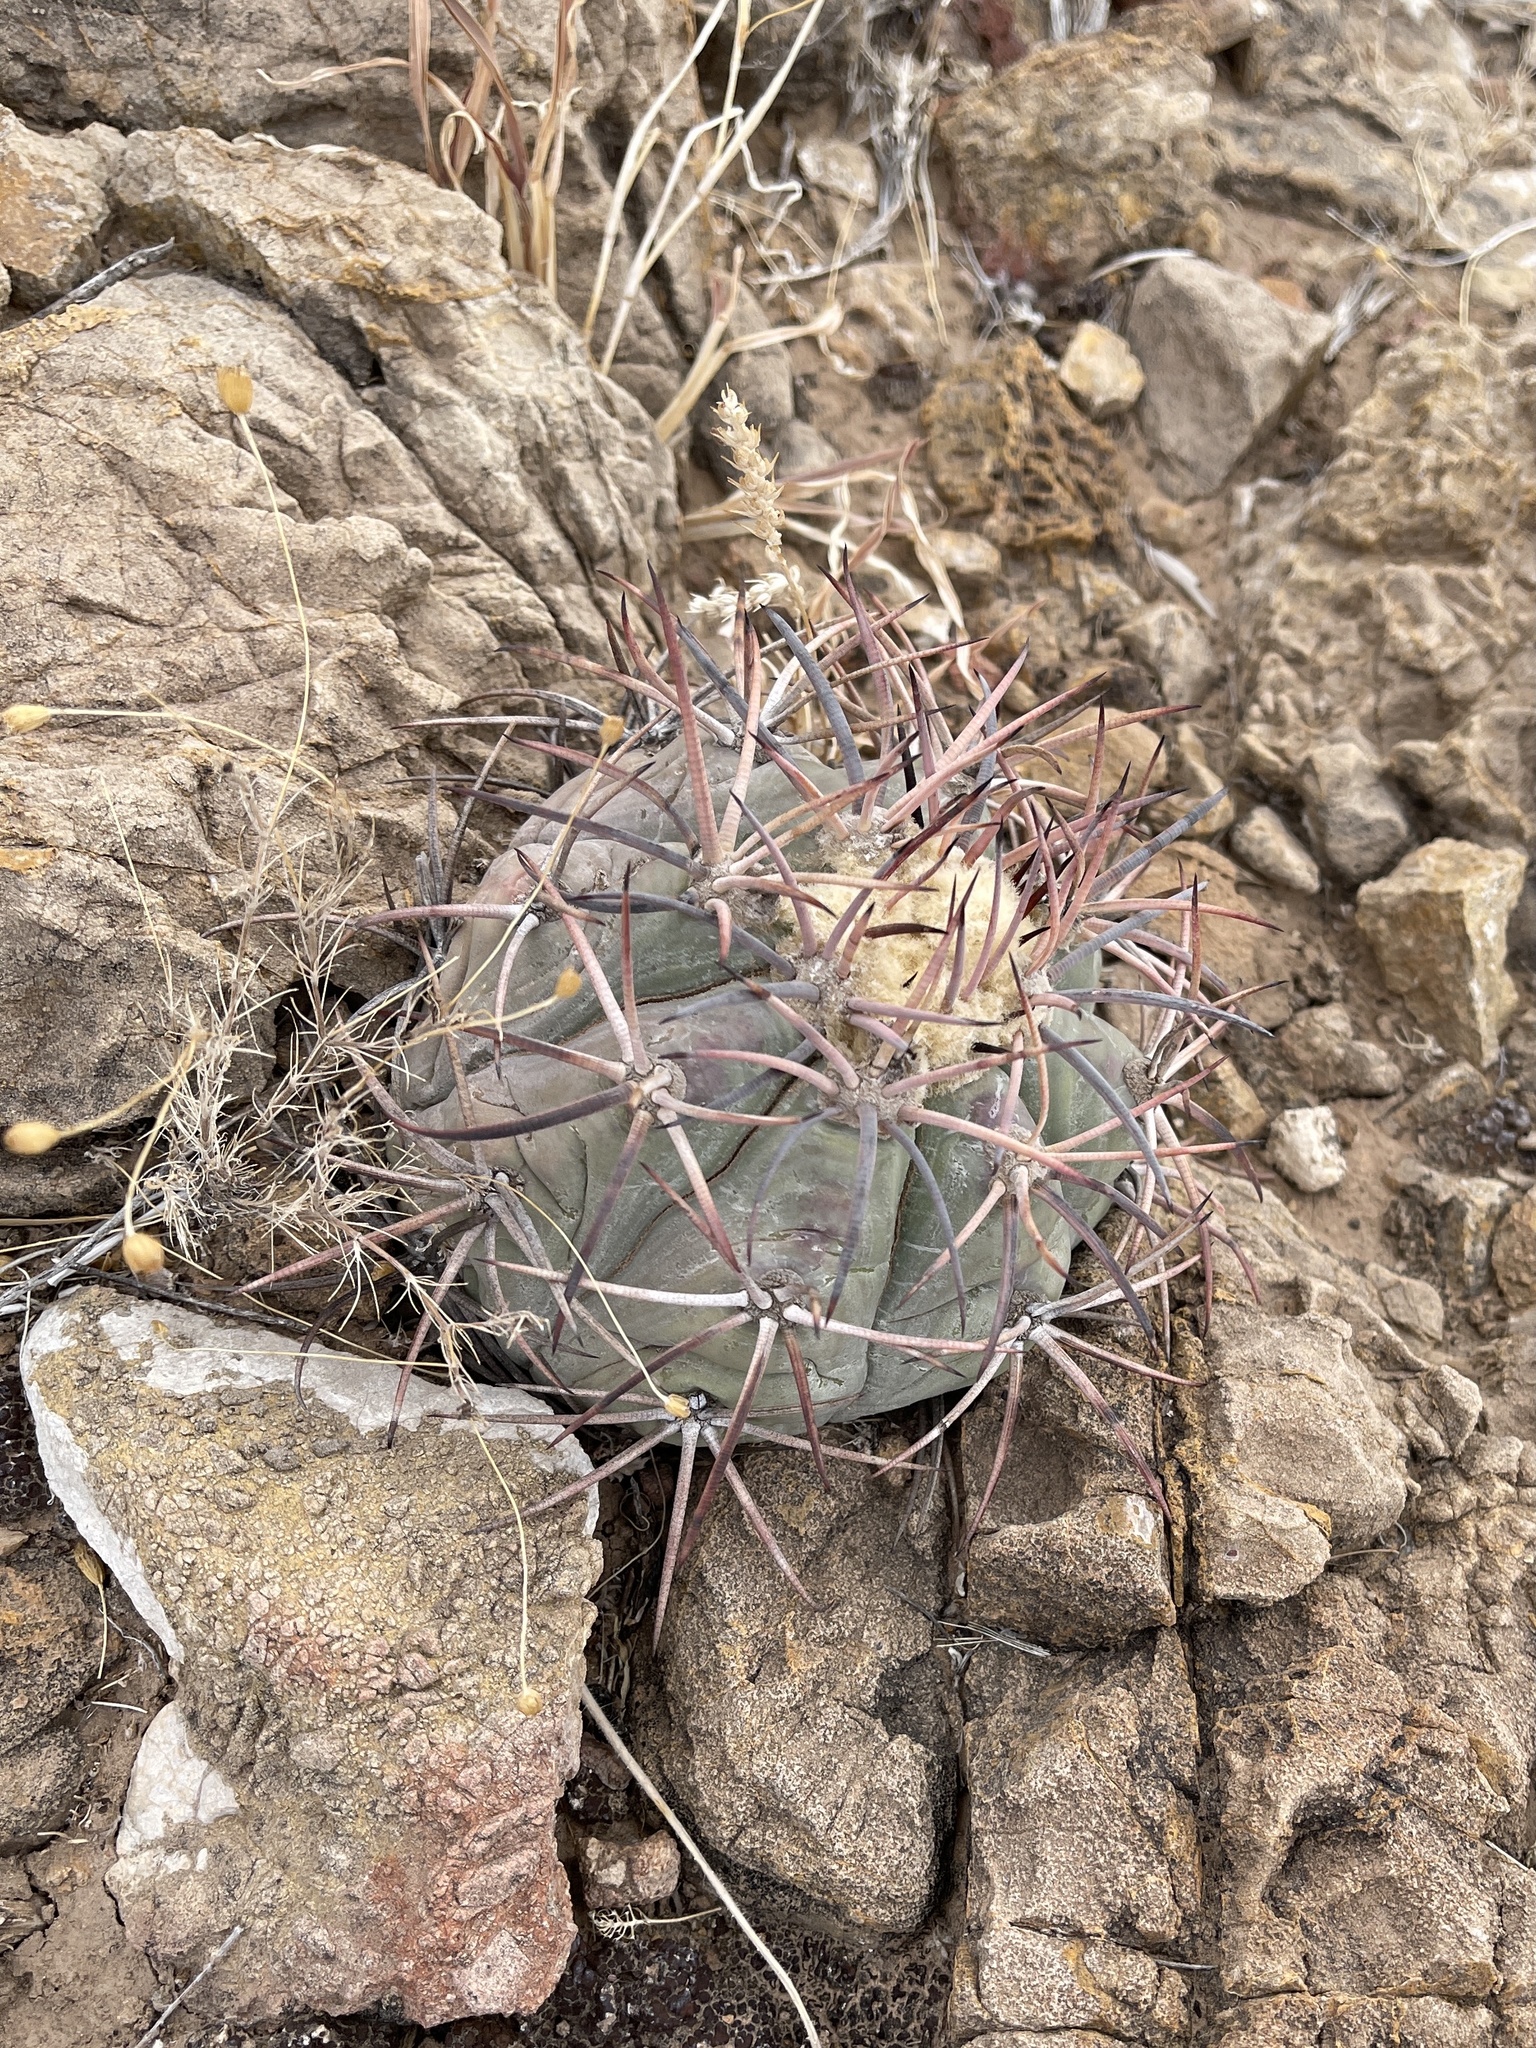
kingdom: Plantae
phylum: Tracheophyta
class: Magnoliopsida
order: Caryophyllales
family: Cactaceae
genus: Echinocactus
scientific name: Echinocactus horizonthalonius
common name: Devilshead
